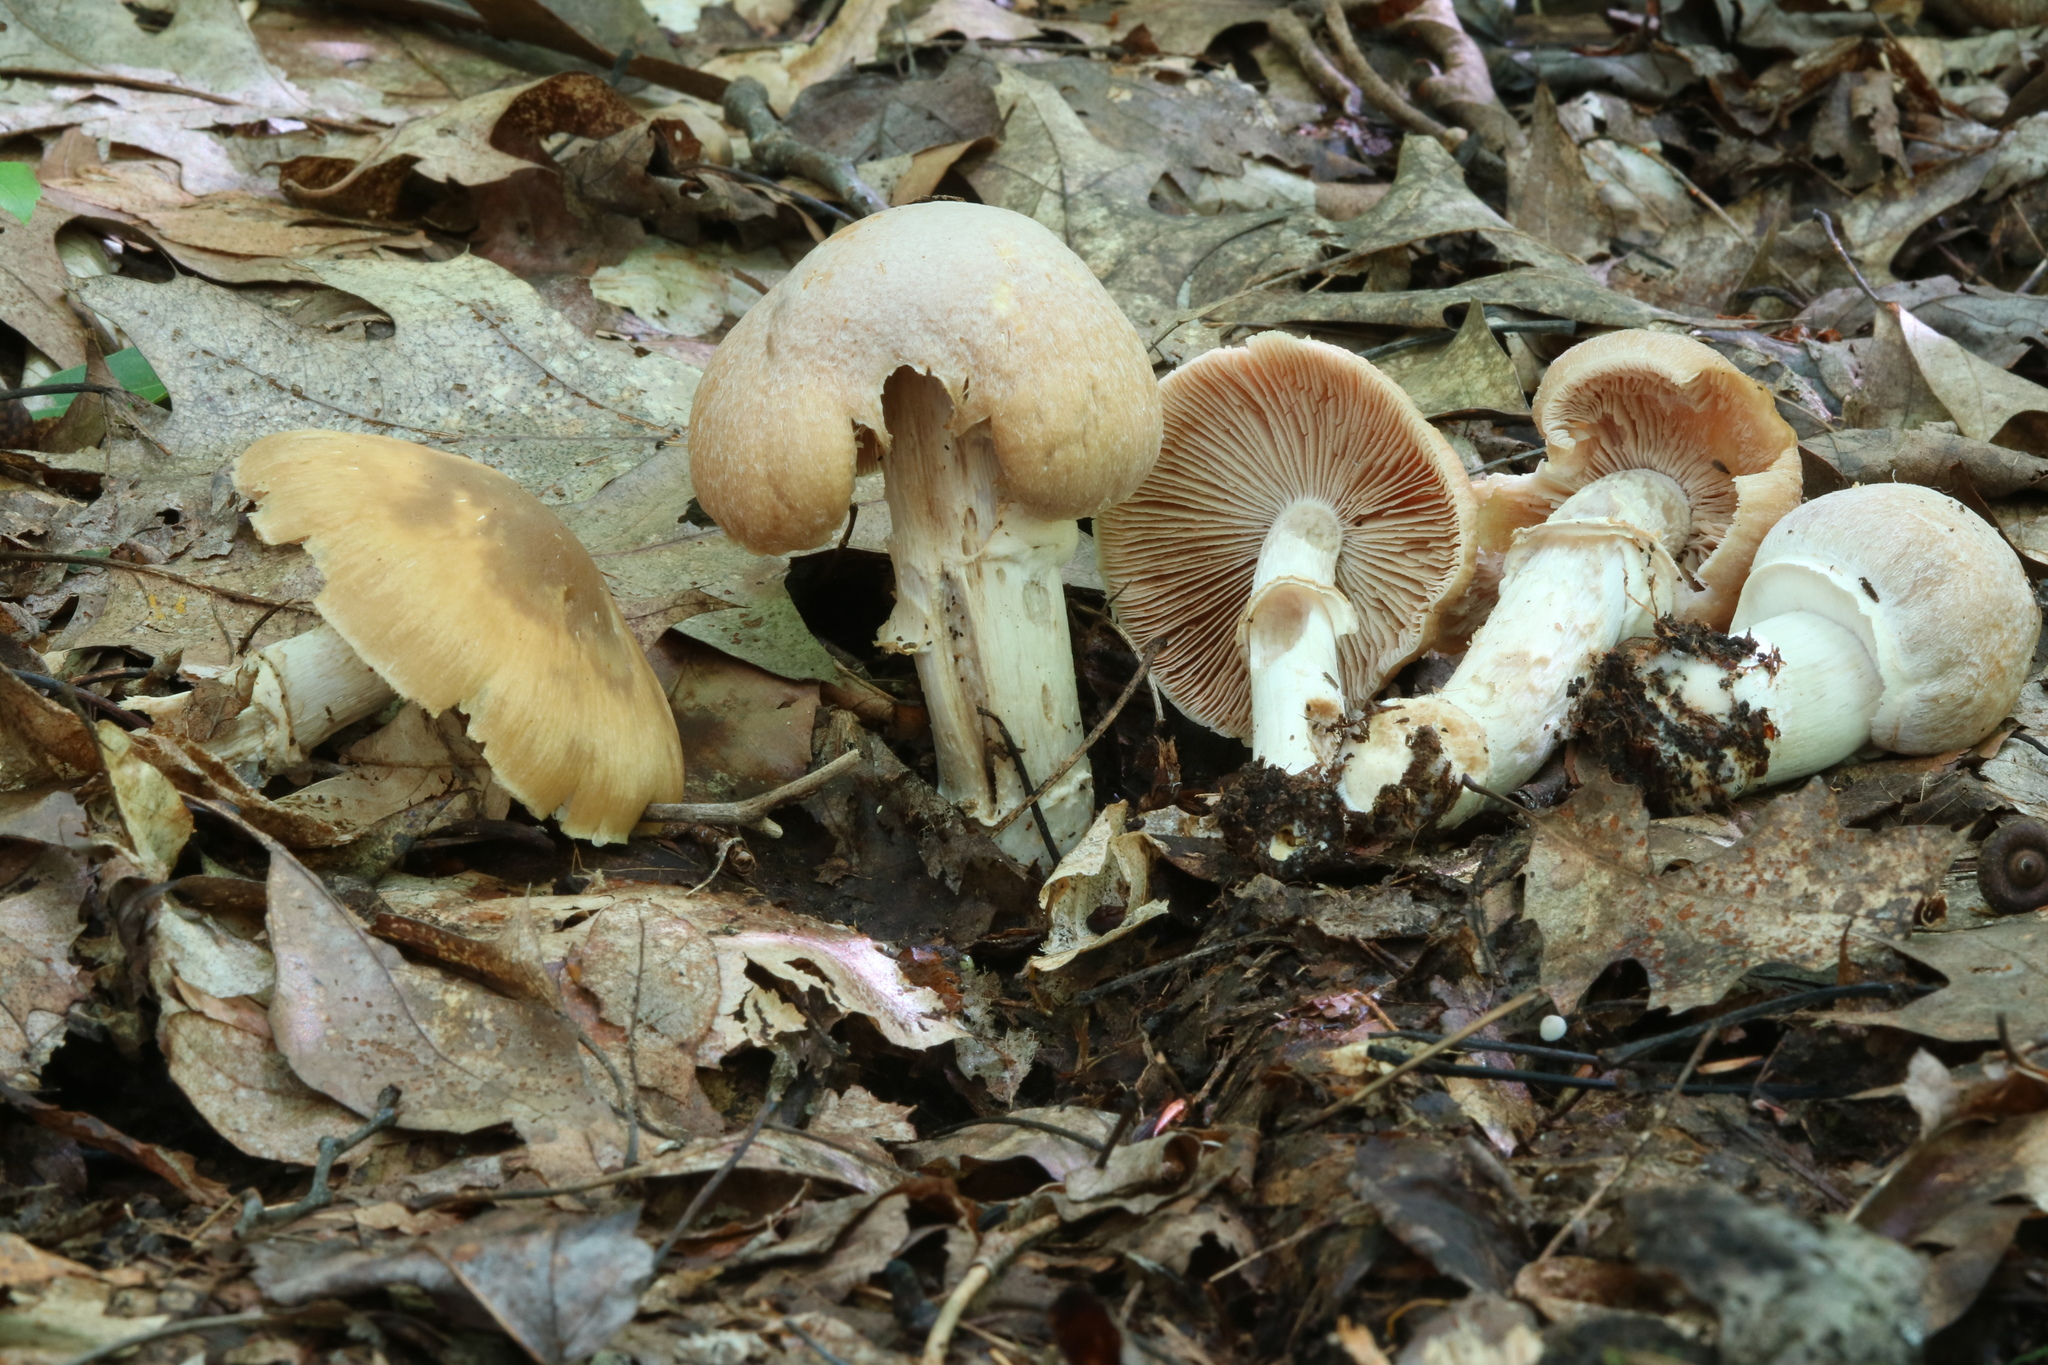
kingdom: Fungi
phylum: Basidiomycota
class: Agaricomycetes
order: Agaricales
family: Cortinariaceae
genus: Cortinarius
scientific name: Cortinarius caperatus
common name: The gypsy
